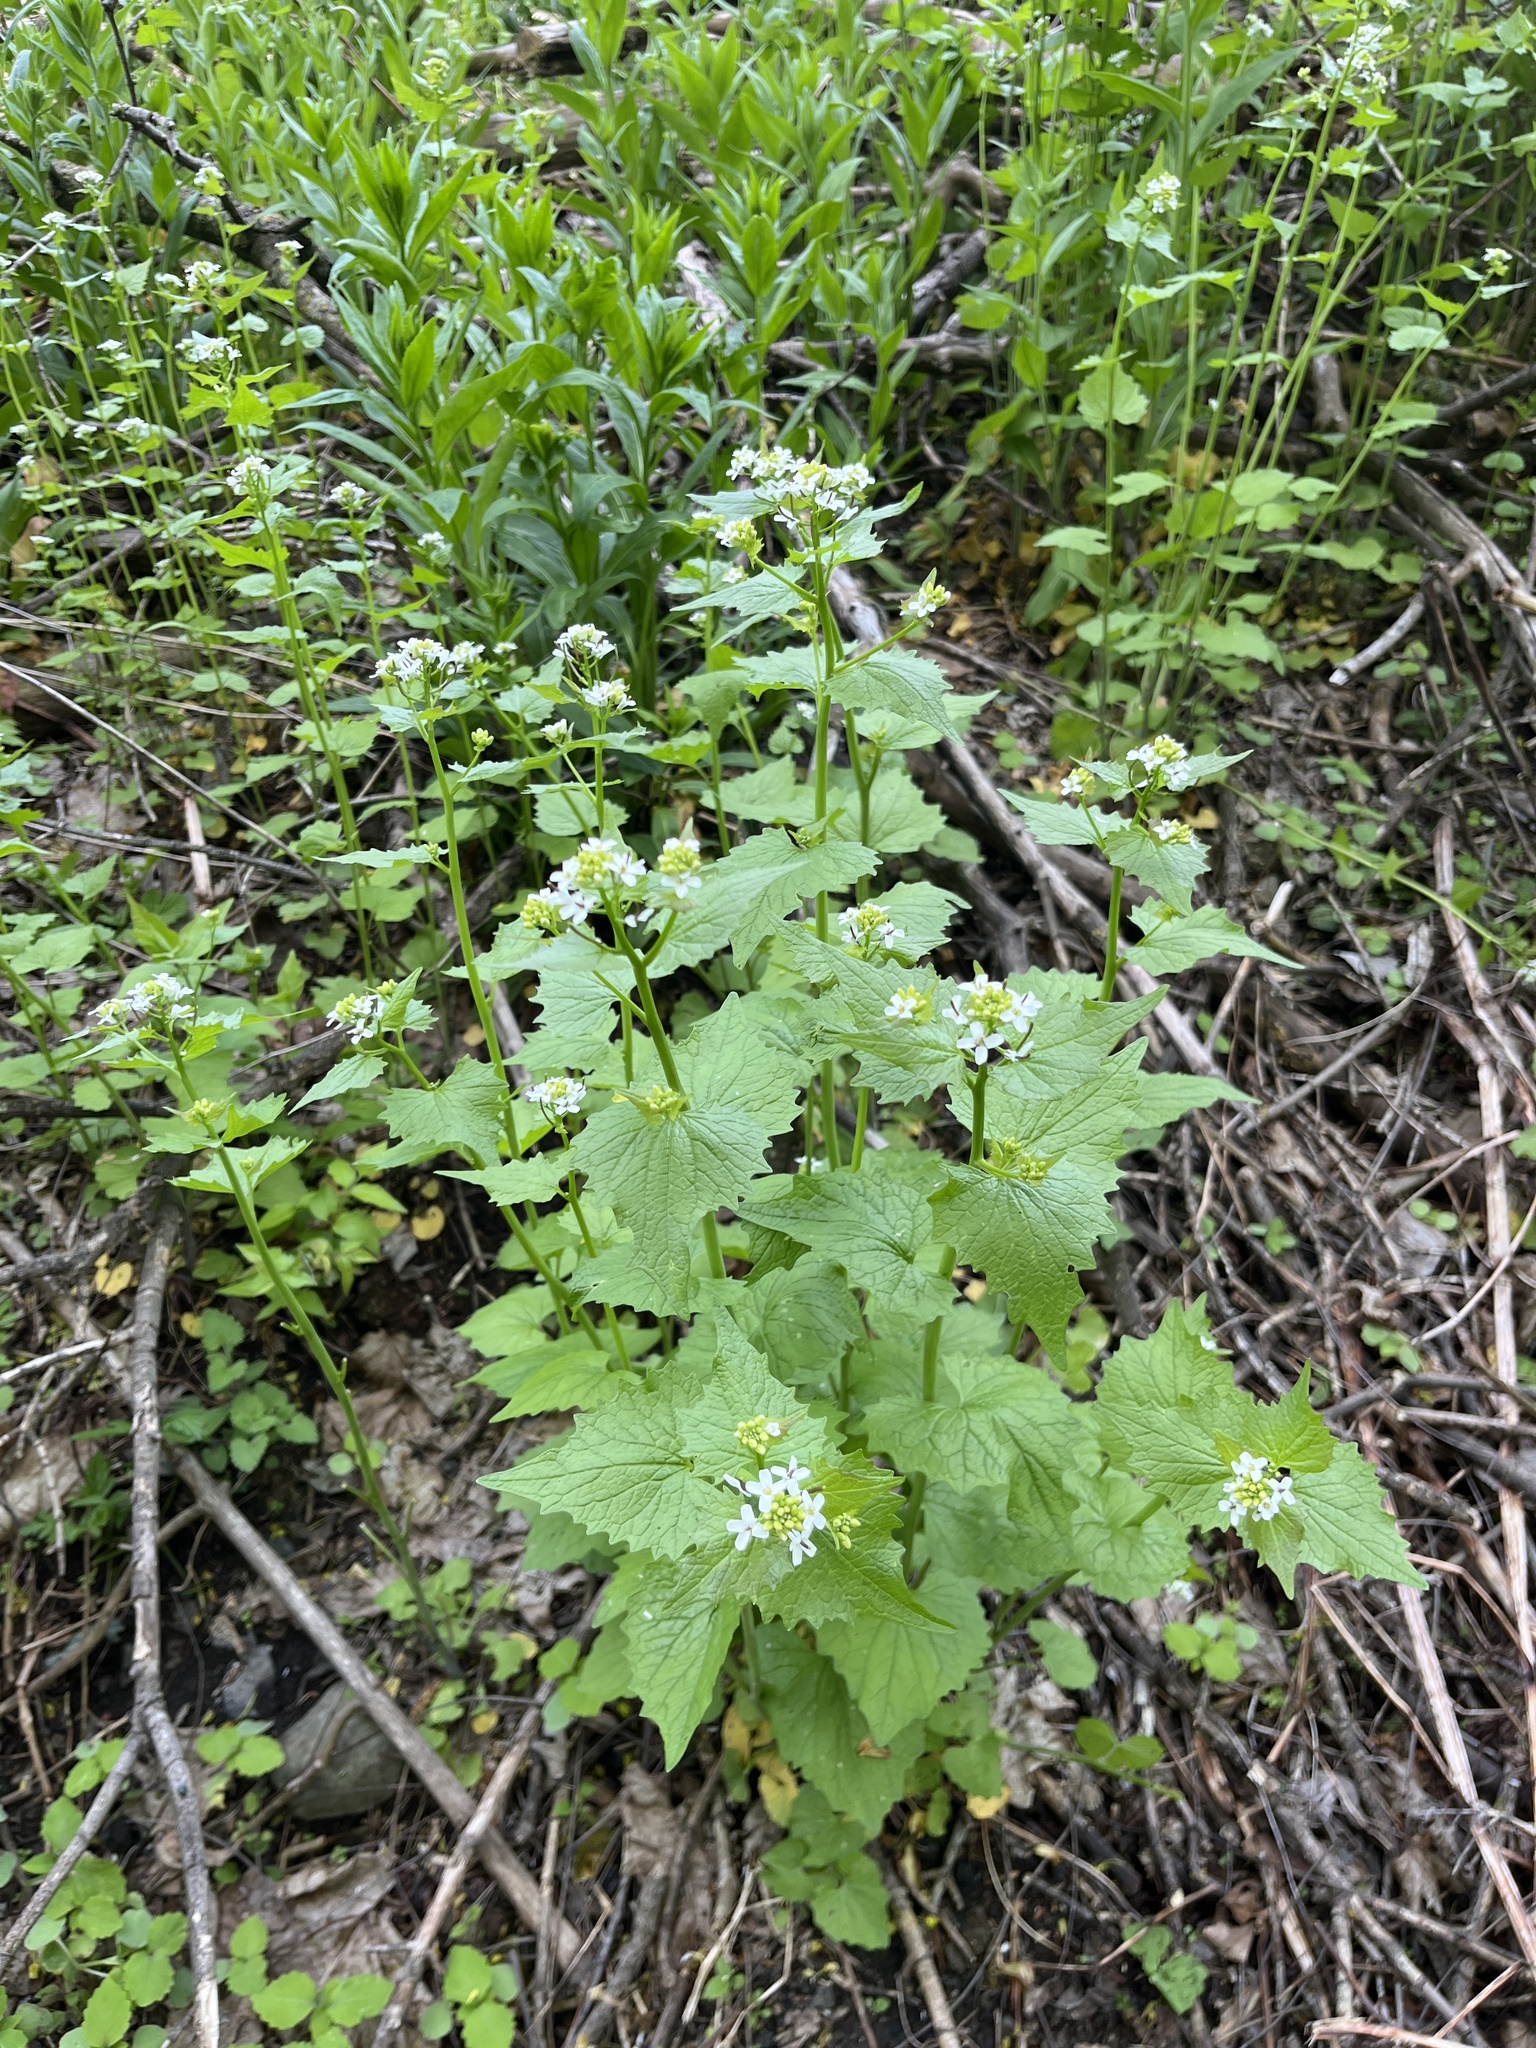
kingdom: Plantae
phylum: Tracheophyta
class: Magnoliopsida
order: Brassicales
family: Brassicaceae
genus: Alliaria
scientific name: Alliaria petiolata
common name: Garlic mustard
